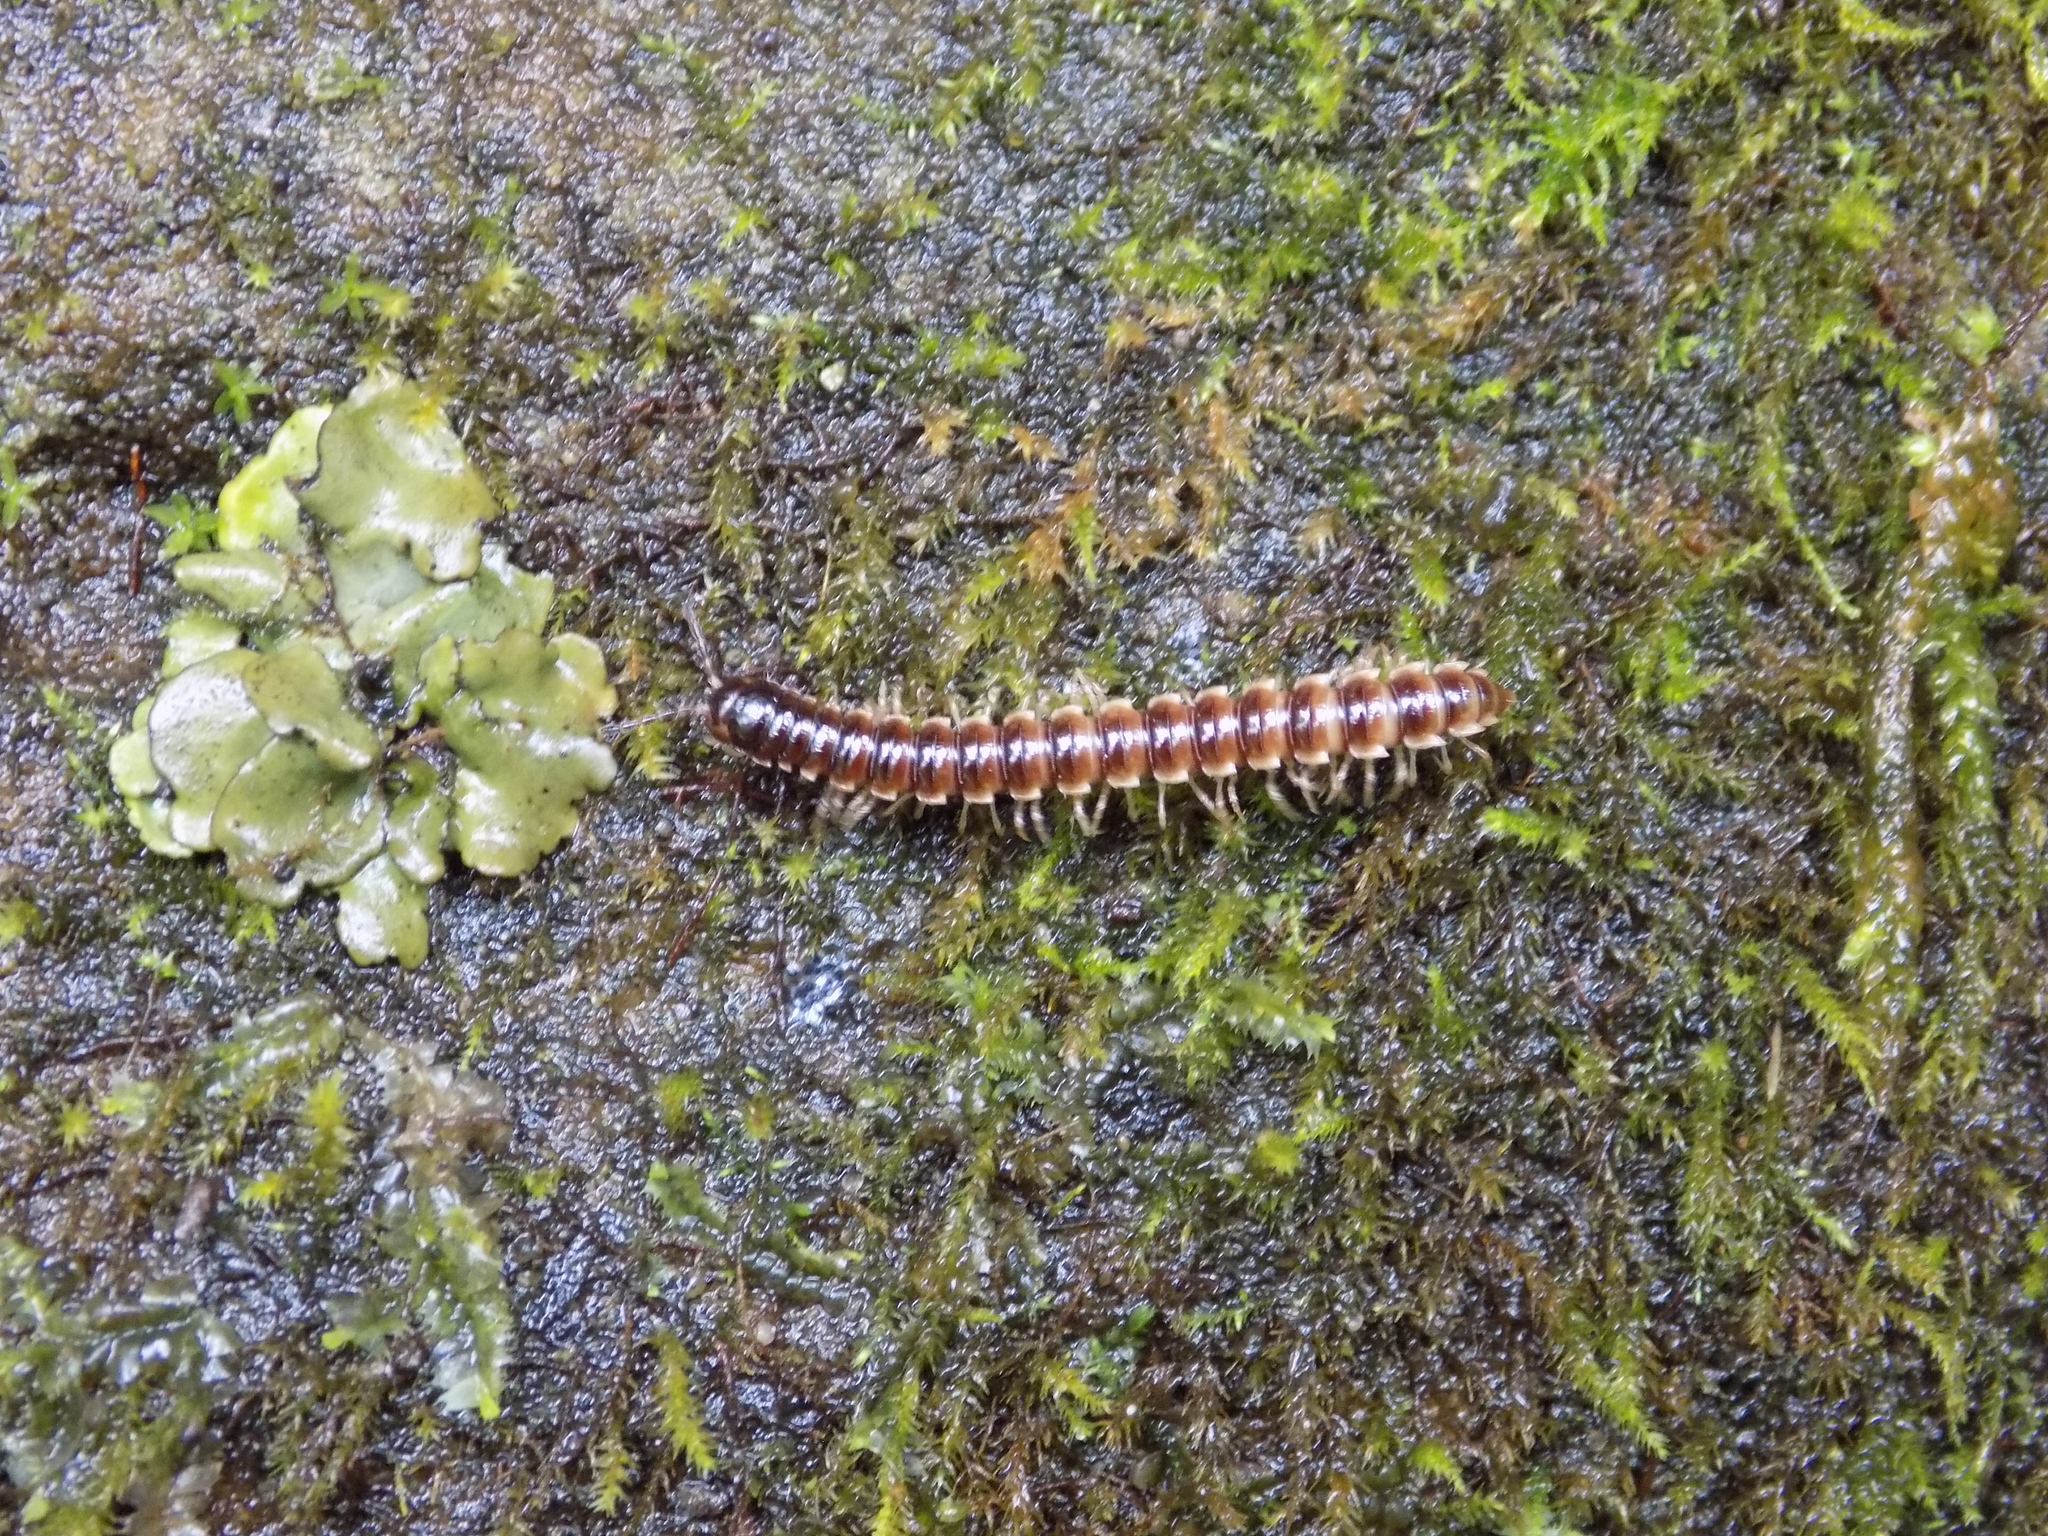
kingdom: Animalia
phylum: Arthropoda
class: Diplopoda
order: Polydesmida
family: Paradoxosomatidae
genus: Oxidus
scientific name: Oxidus gracilis
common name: Greenhouse millipede
